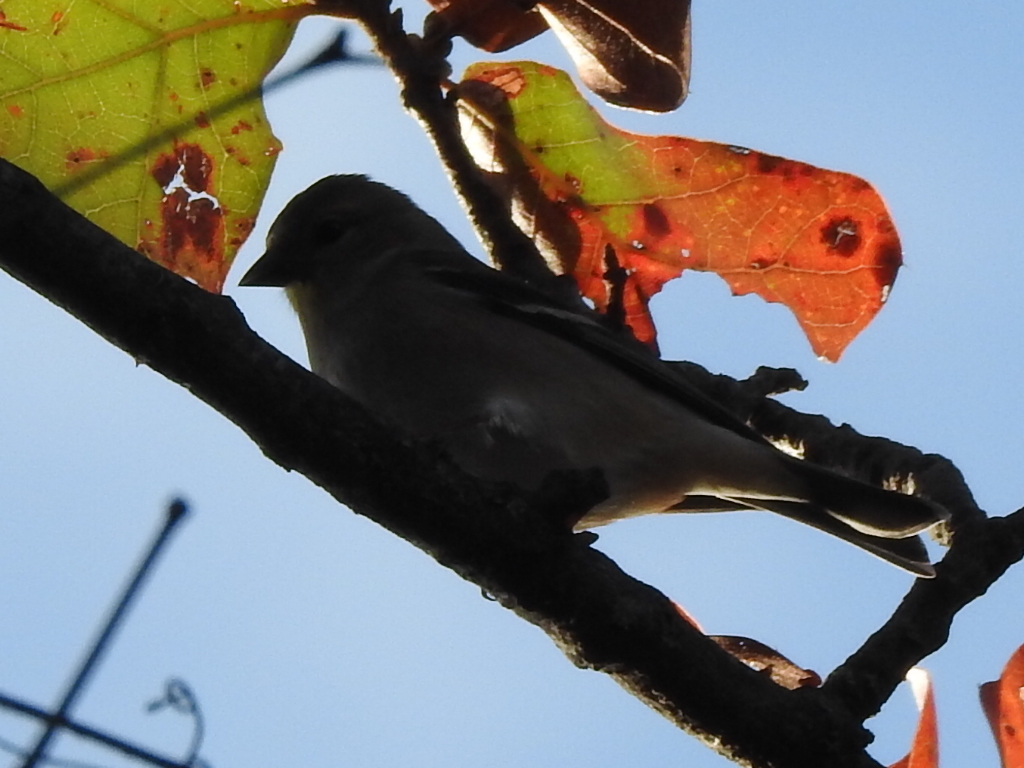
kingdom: Animalia
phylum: Chordata
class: Aves
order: Passeriformes
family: Fringillidae
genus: Spinus
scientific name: Spinus tristis
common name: American goldfinch
